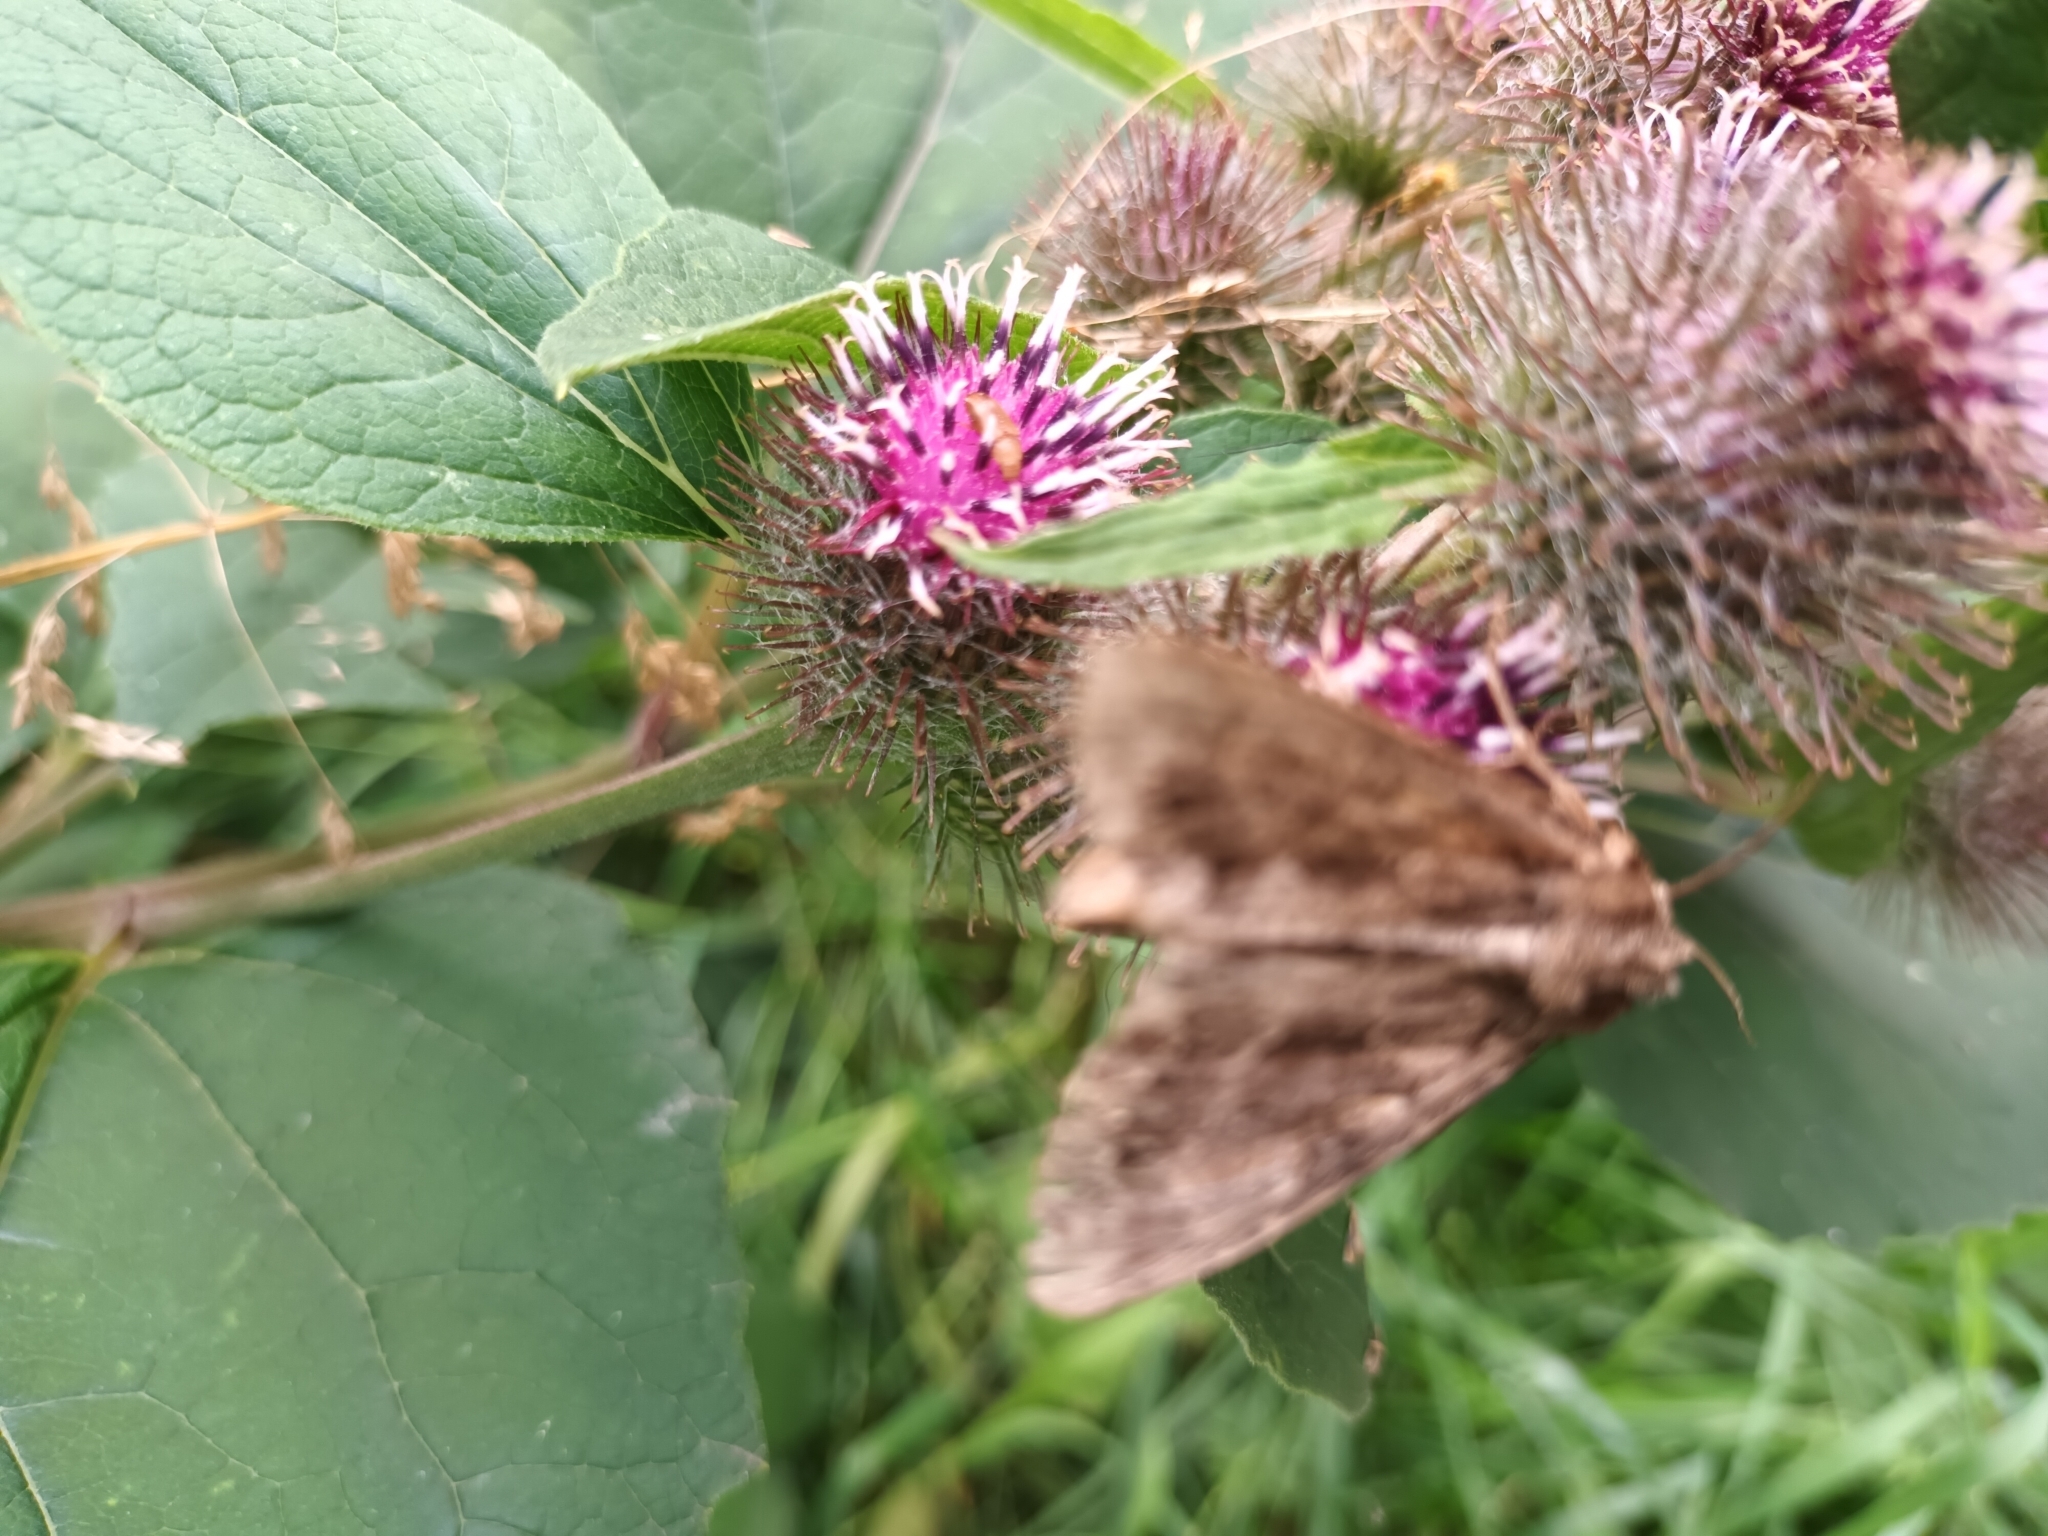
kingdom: Animalia
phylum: Arthropoda
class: Insecta
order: Lepidoptera
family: Noctuidae
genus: Apamea
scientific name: Apamea monoglypha
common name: Dark arches
